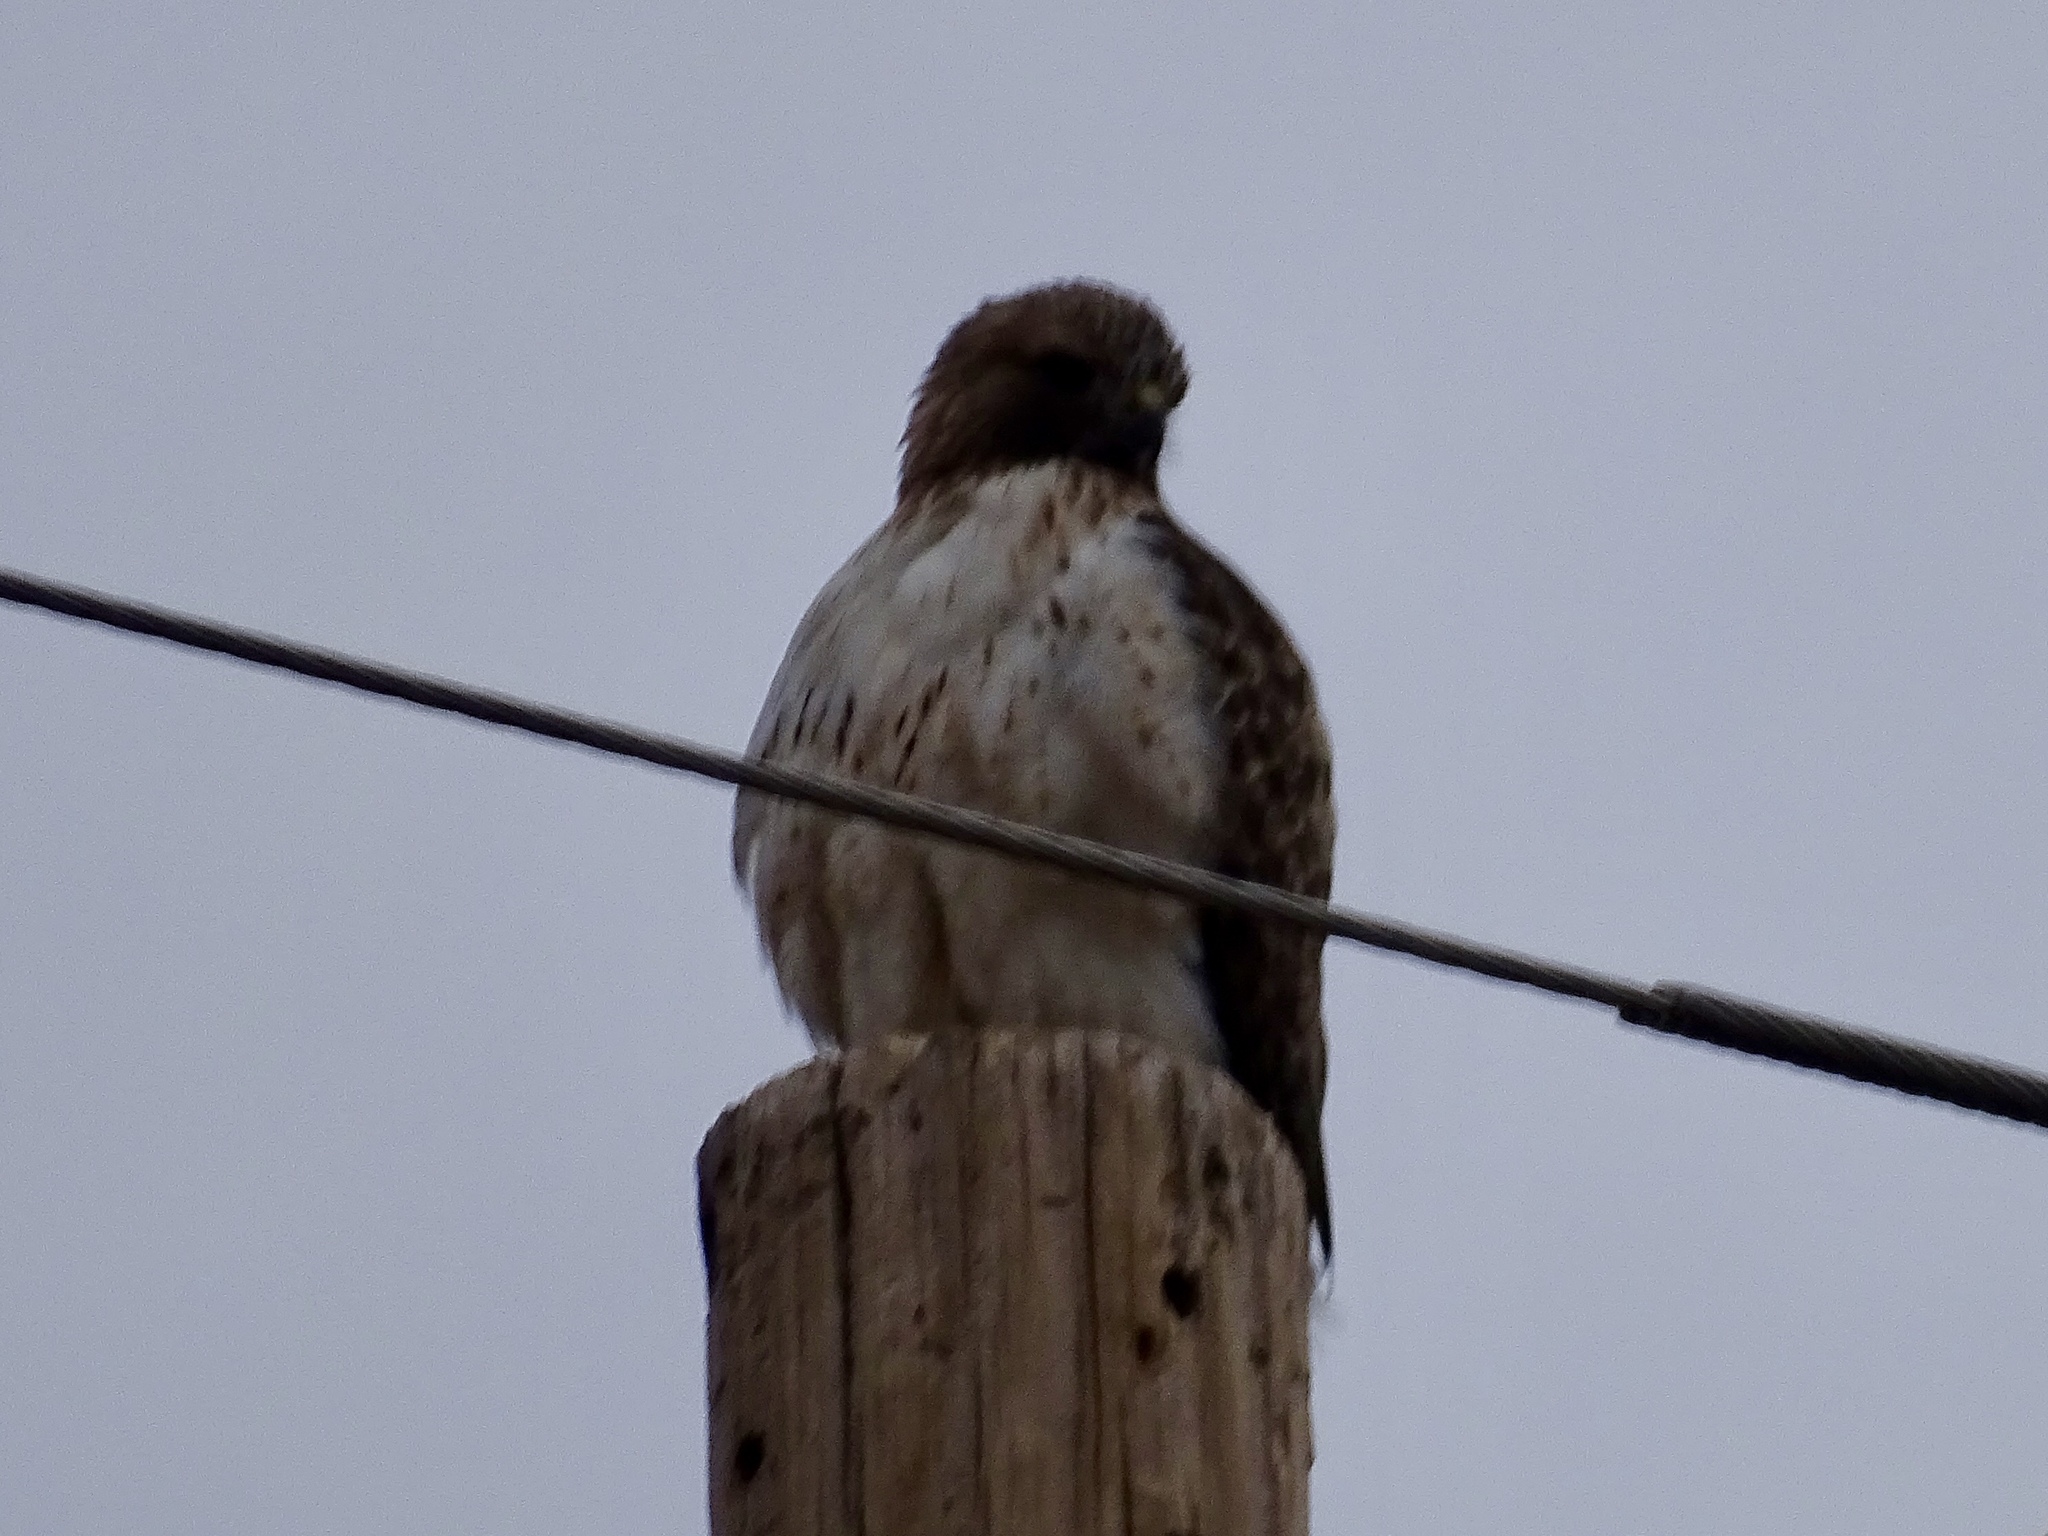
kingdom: Animalia
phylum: Chordata
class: Aves
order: Accipitriformes
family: Accipitridae
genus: Buteo
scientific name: Buteo jamaicensis
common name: Red-tailed hawk
